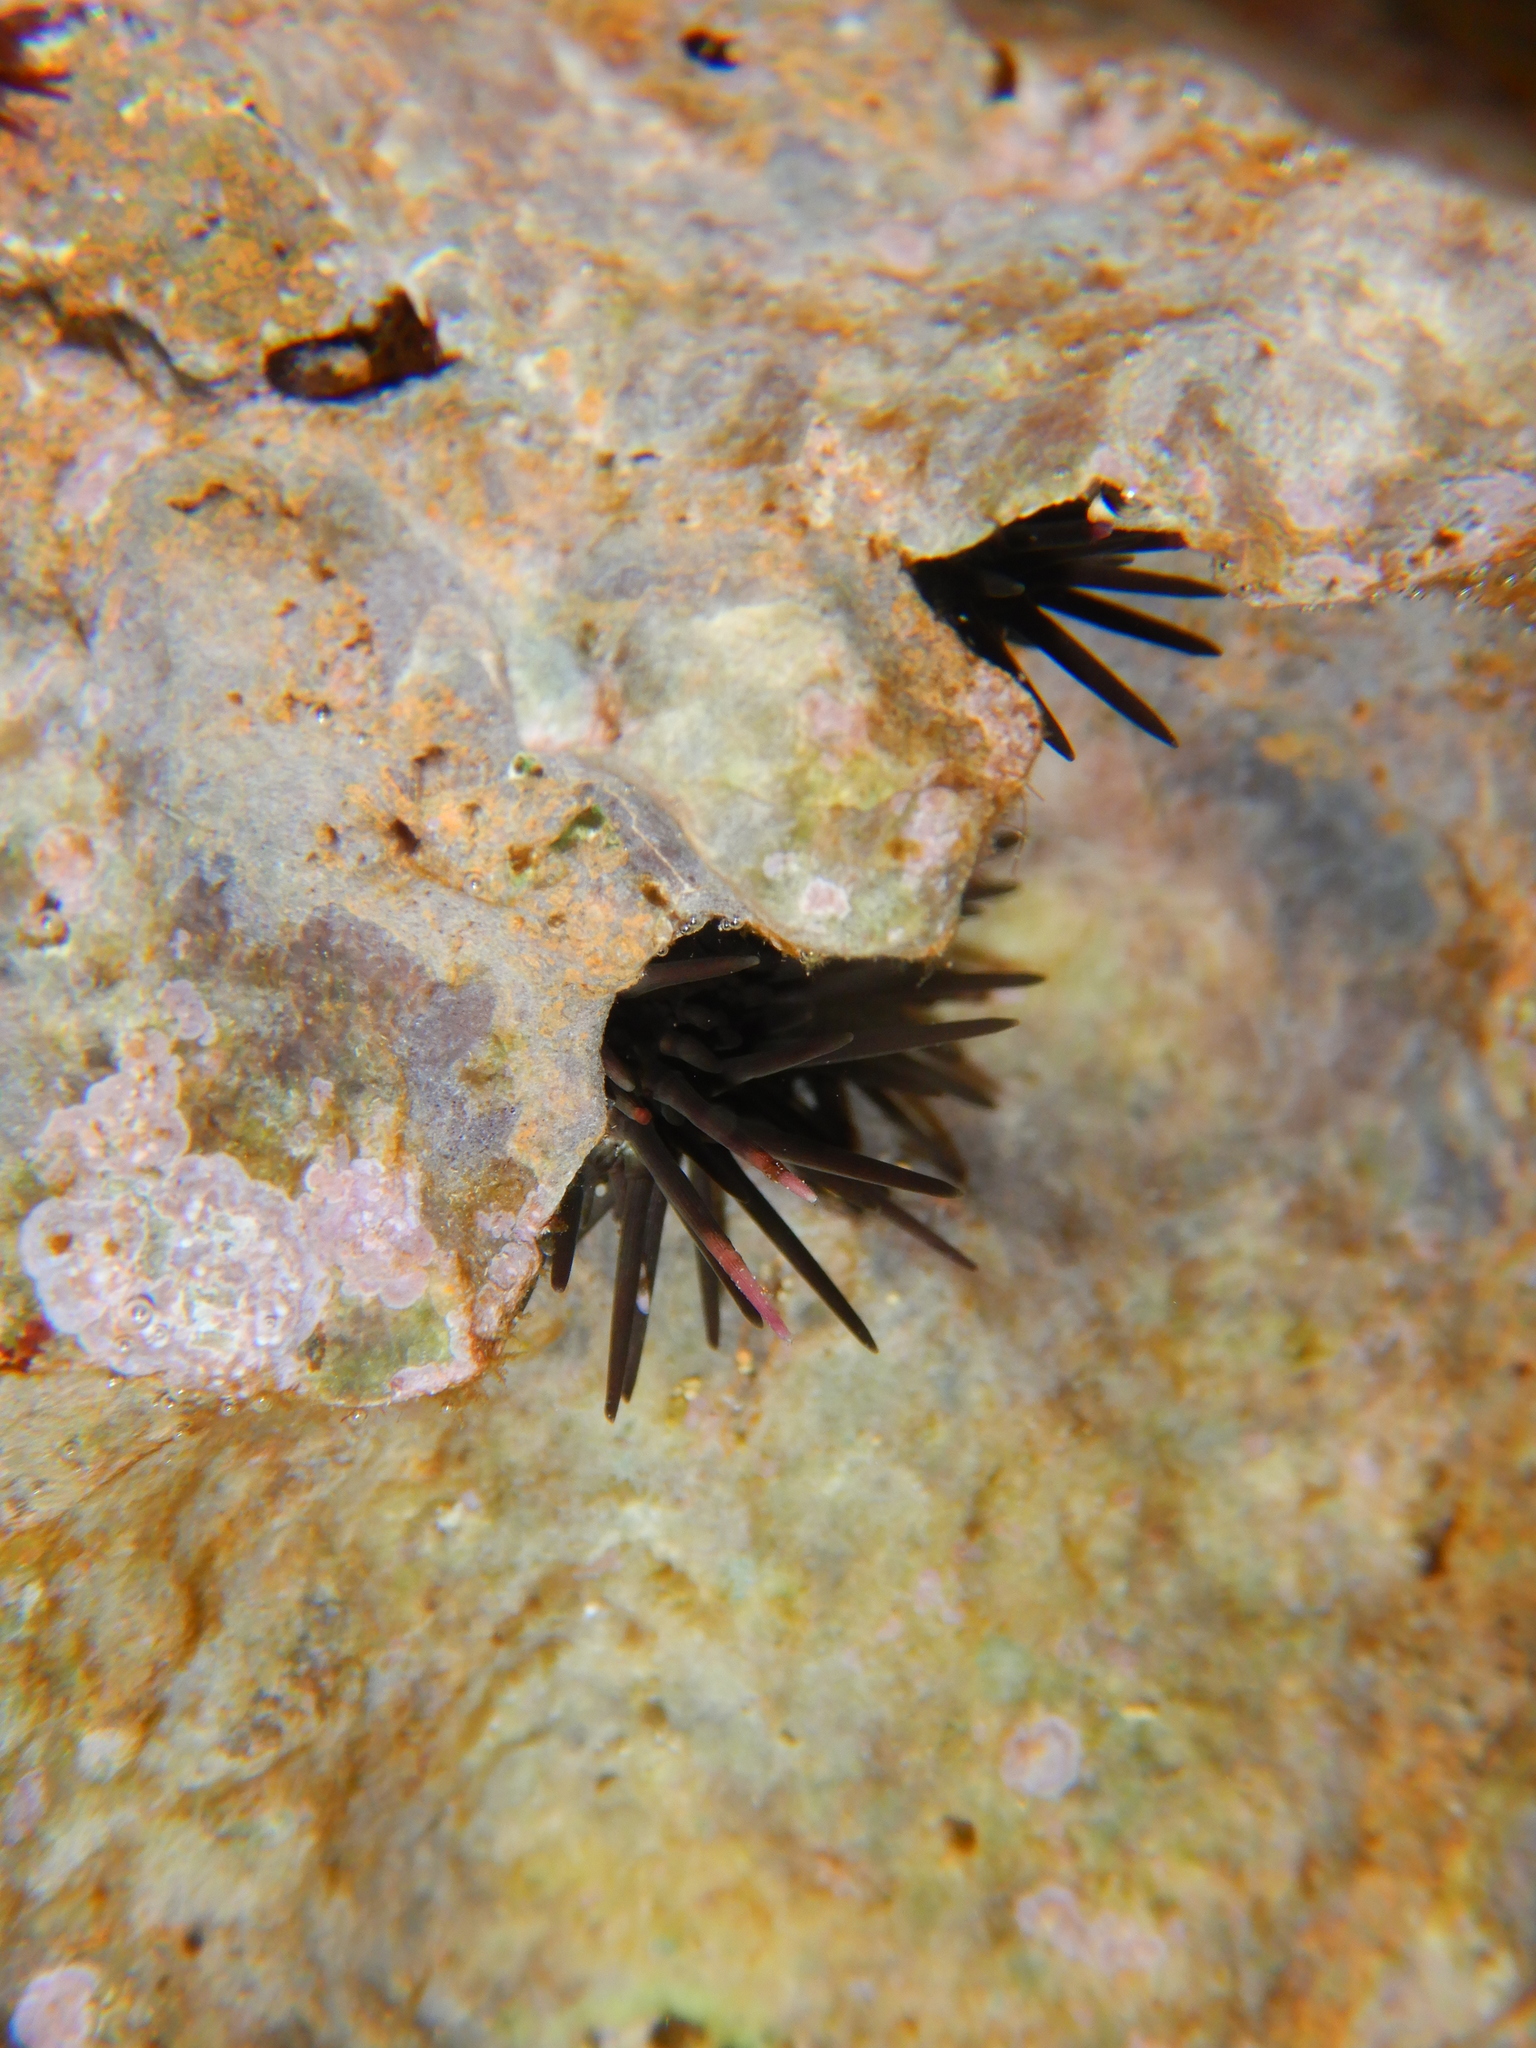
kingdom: Animalia
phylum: Echinodermata
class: Echinoidea
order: Arbacioida
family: Arbaciidae
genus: Arbacia
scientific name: Arbacia lixula
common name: Black sea urchin
